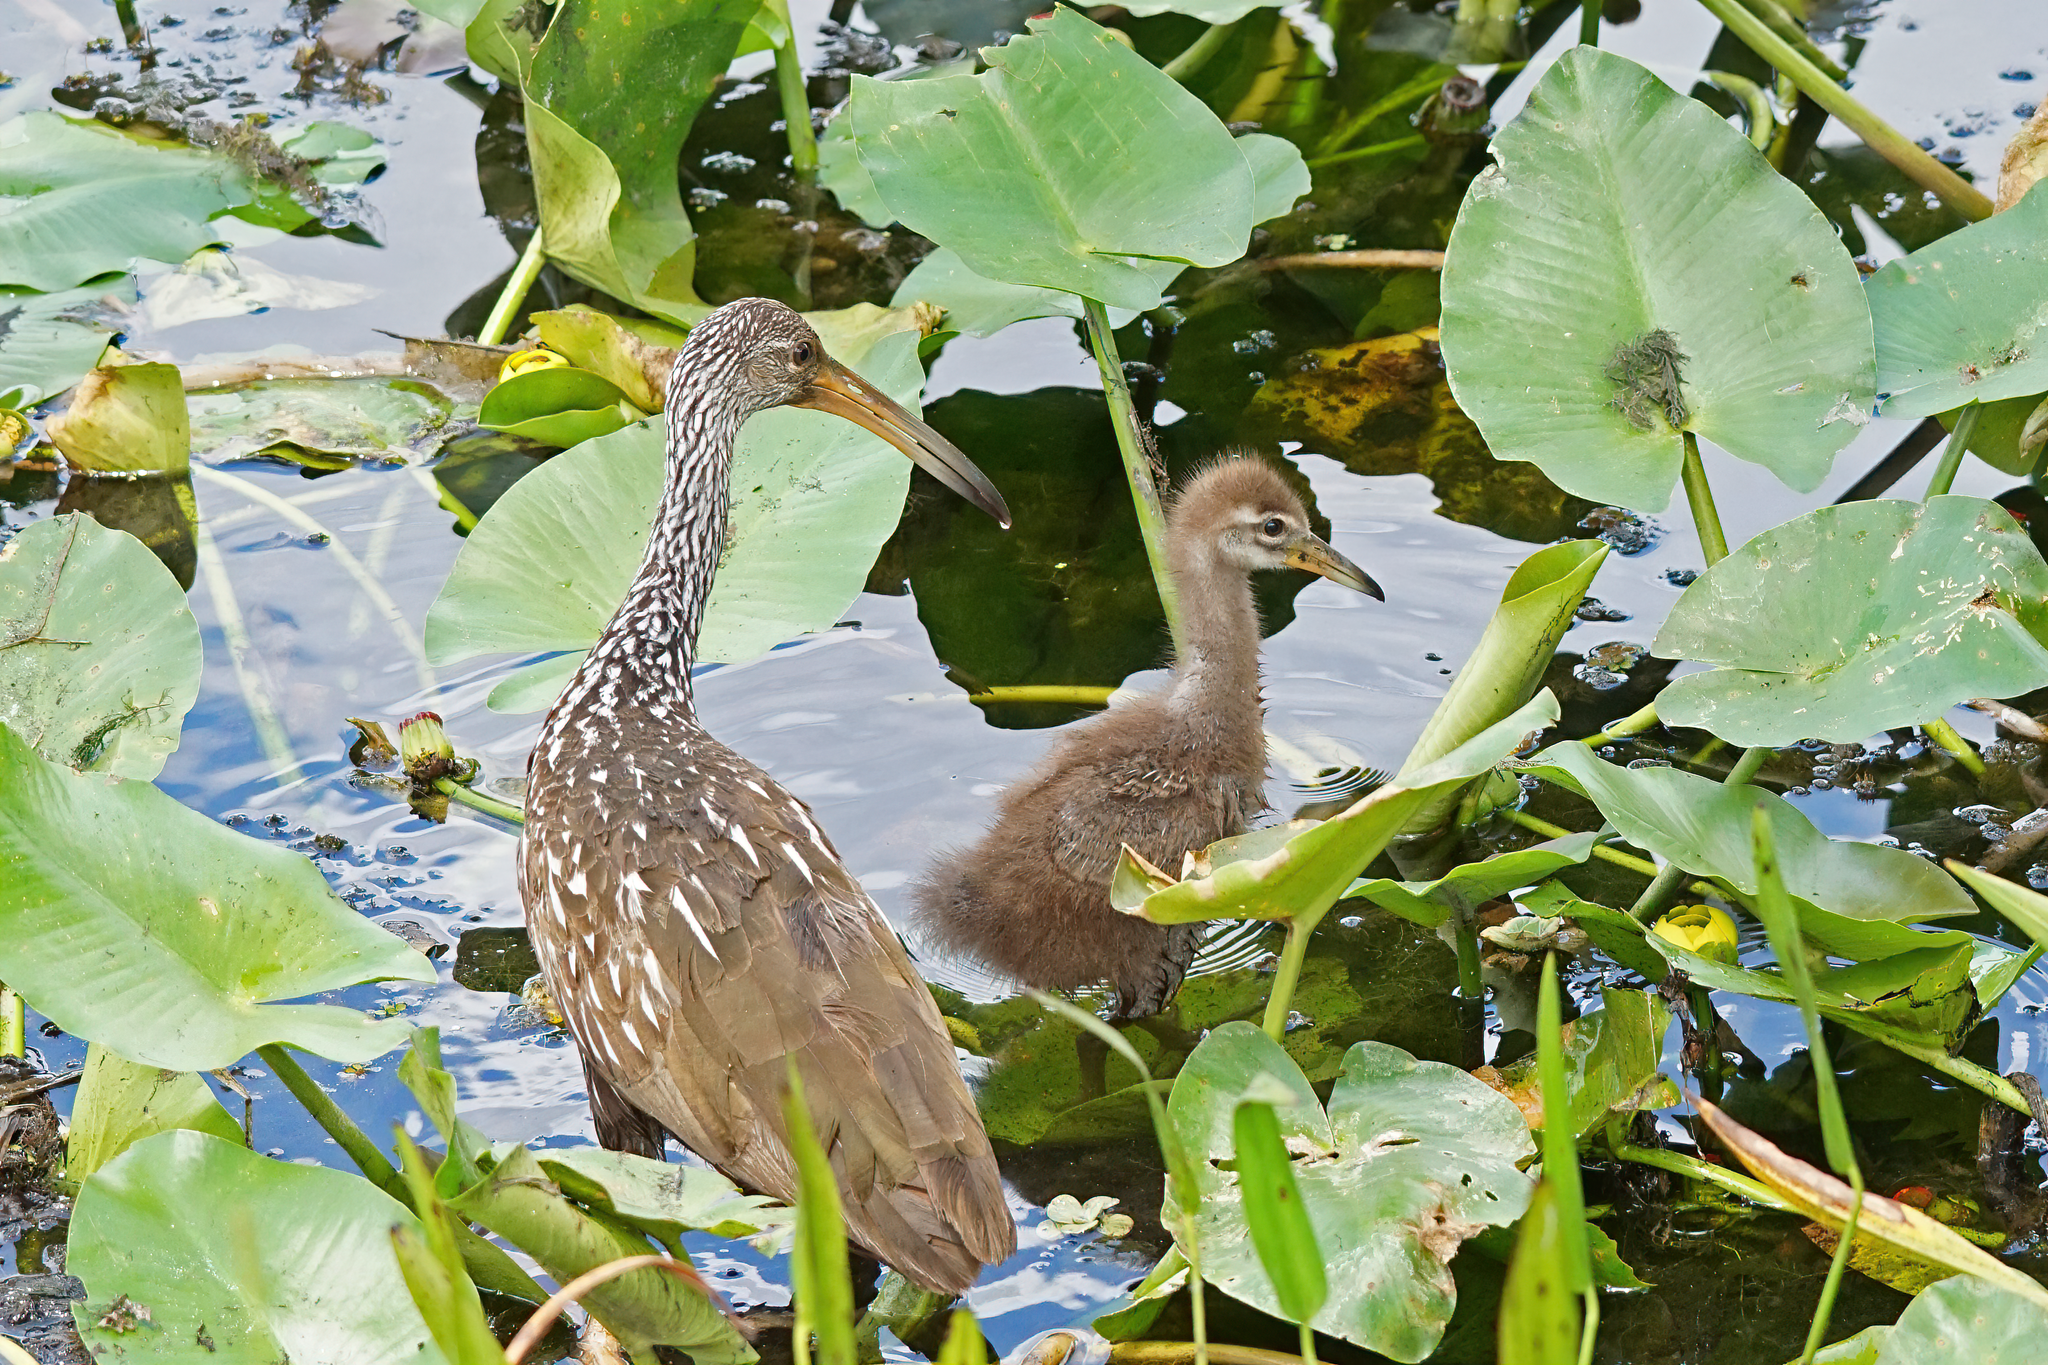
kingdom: Animalia
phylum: Chordata
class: Aves
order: Gruiformes
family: Aramidae
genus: Aramus
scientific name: Aramus guarauna
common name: Limpkin
